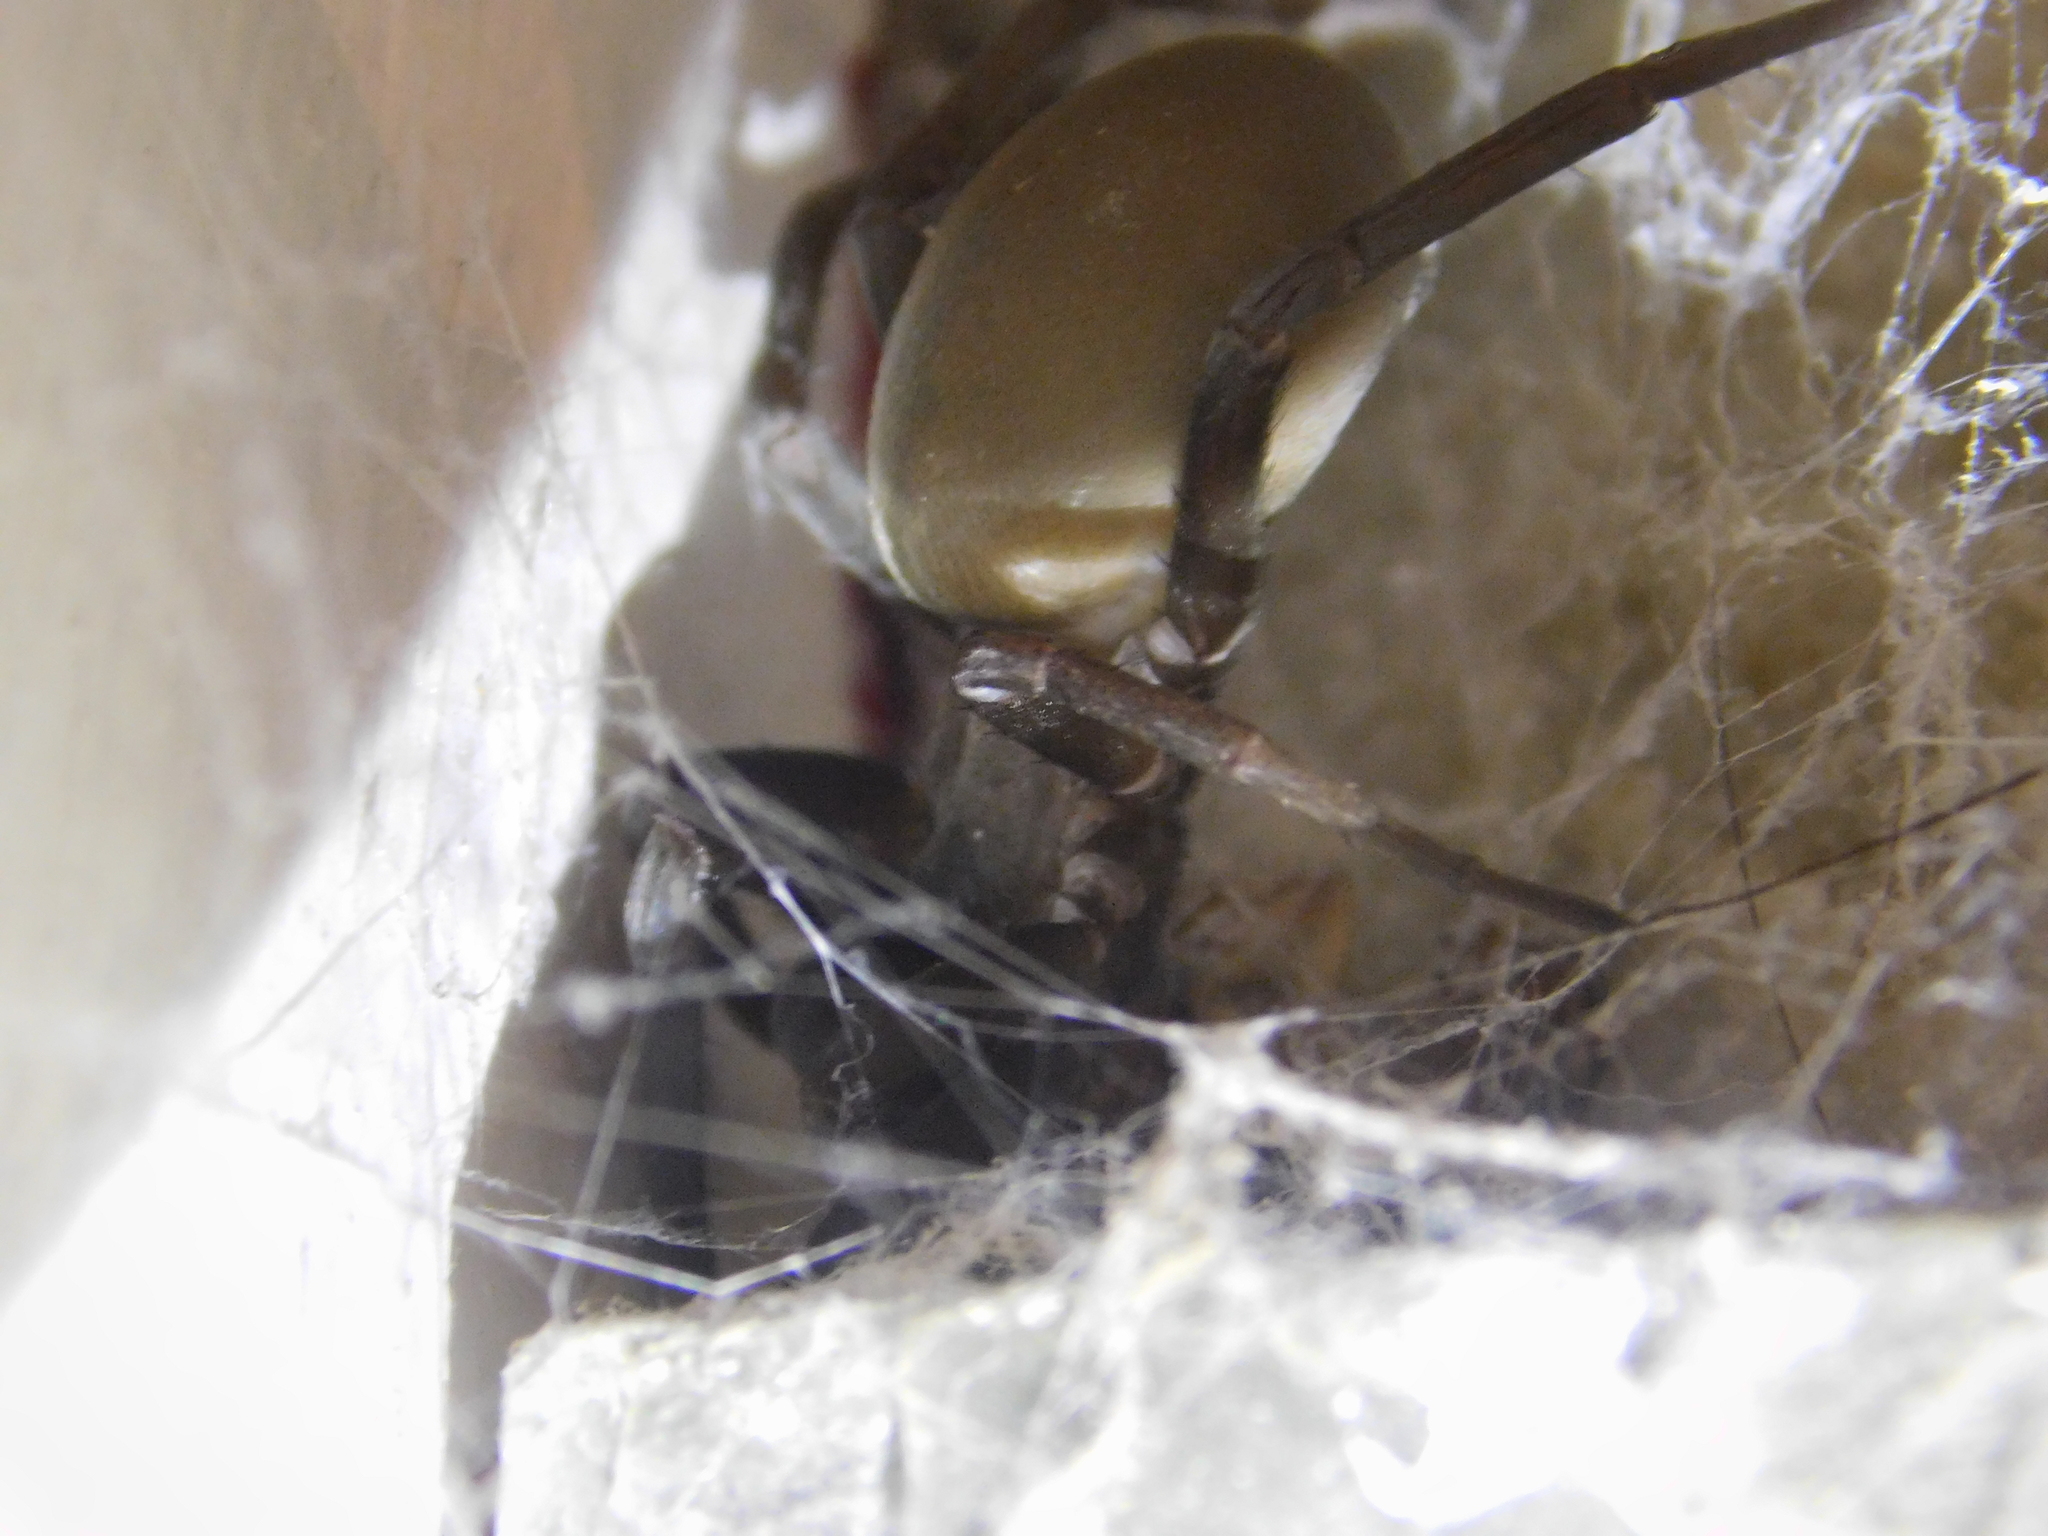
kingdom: Animalia
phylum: Arthropoda
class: Arachnida
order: Araneae
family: Filistatidae
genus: Kukulcania
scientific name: Kukulcania hibernalis
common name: Crevice weaver
